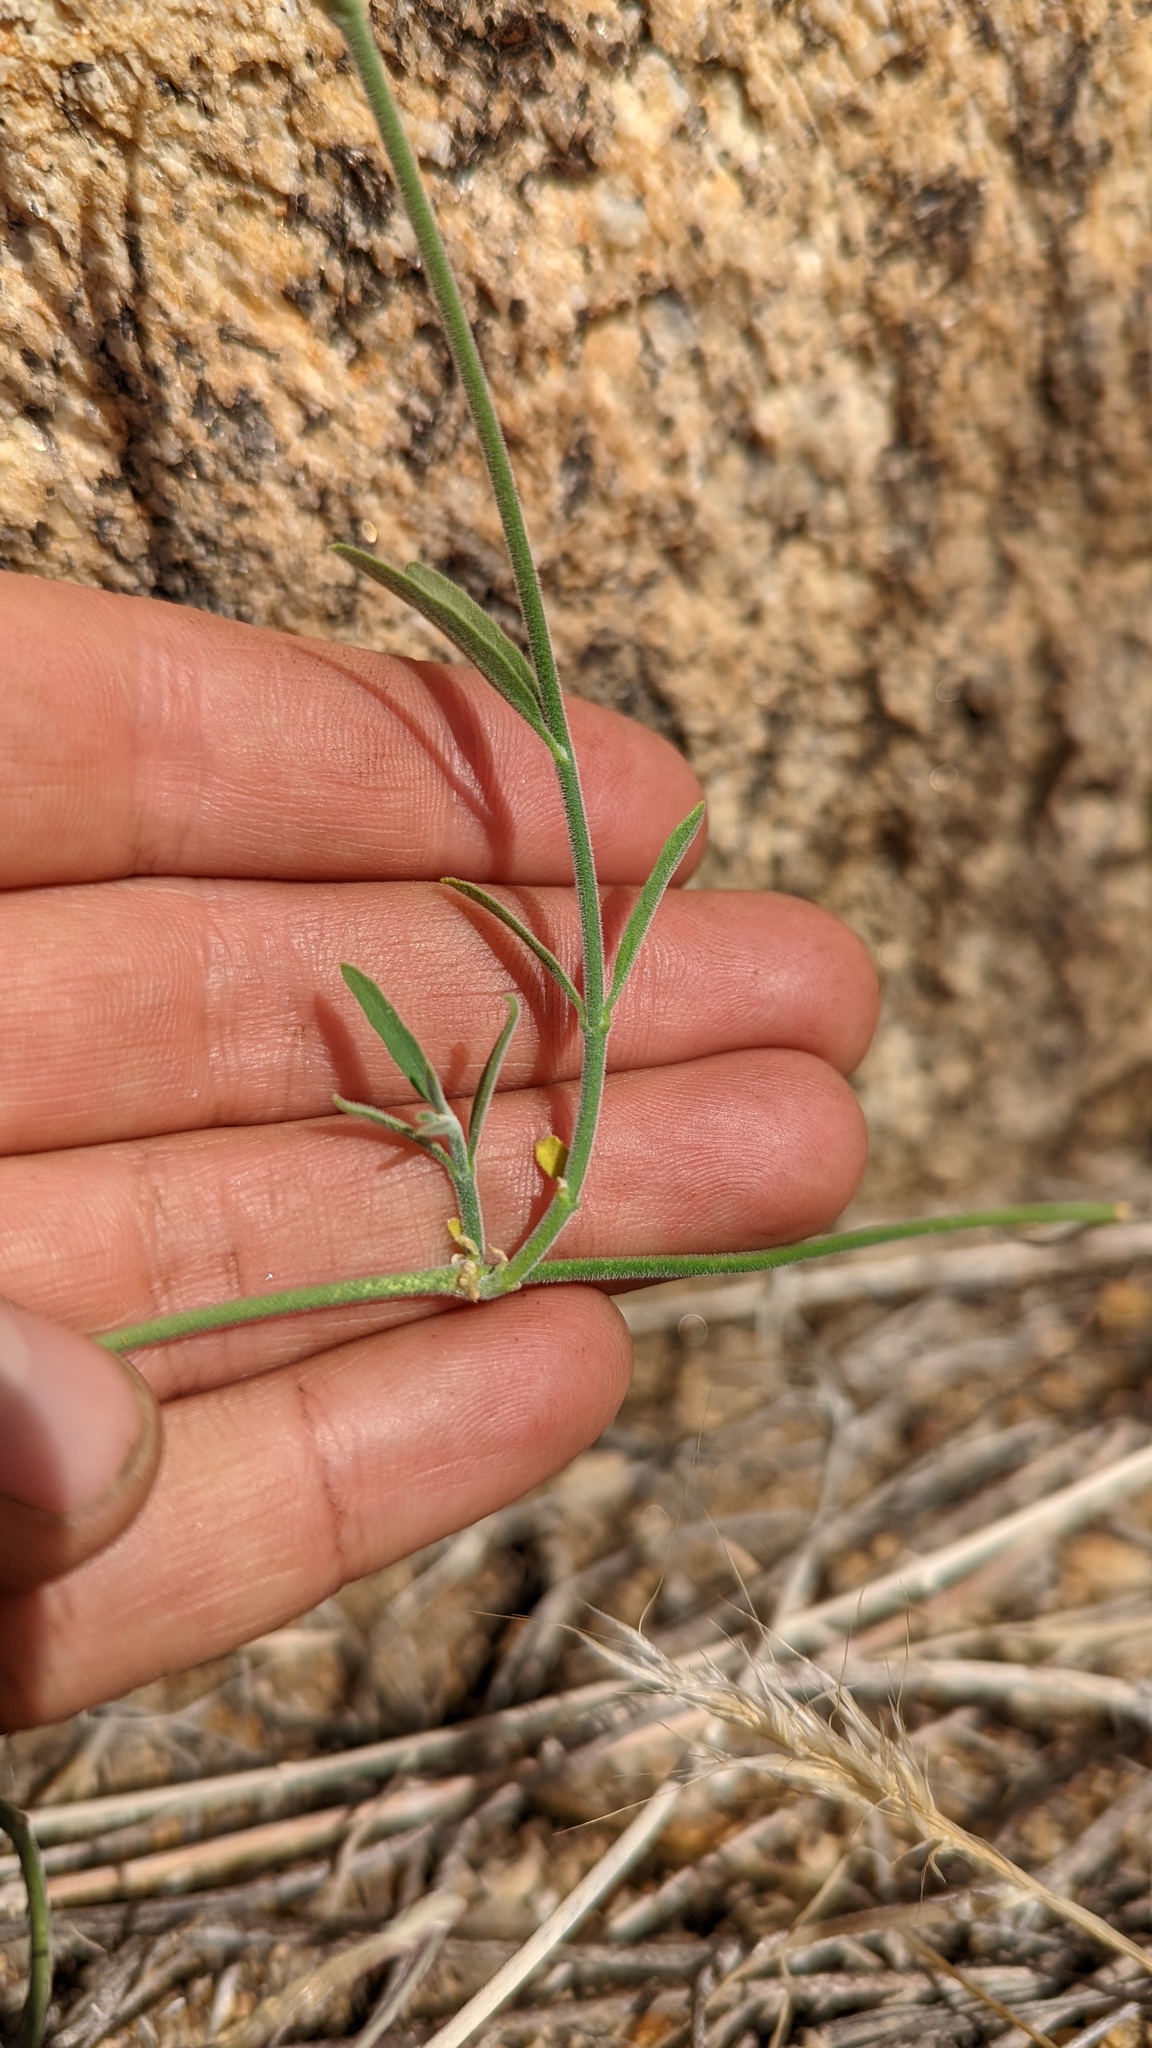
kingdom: Plantae
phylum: Tracheophyta
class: Magnoliopsida
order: Gentianales
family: Apocynaceae
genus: Funastrum
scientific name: Funastrum hirtellum
